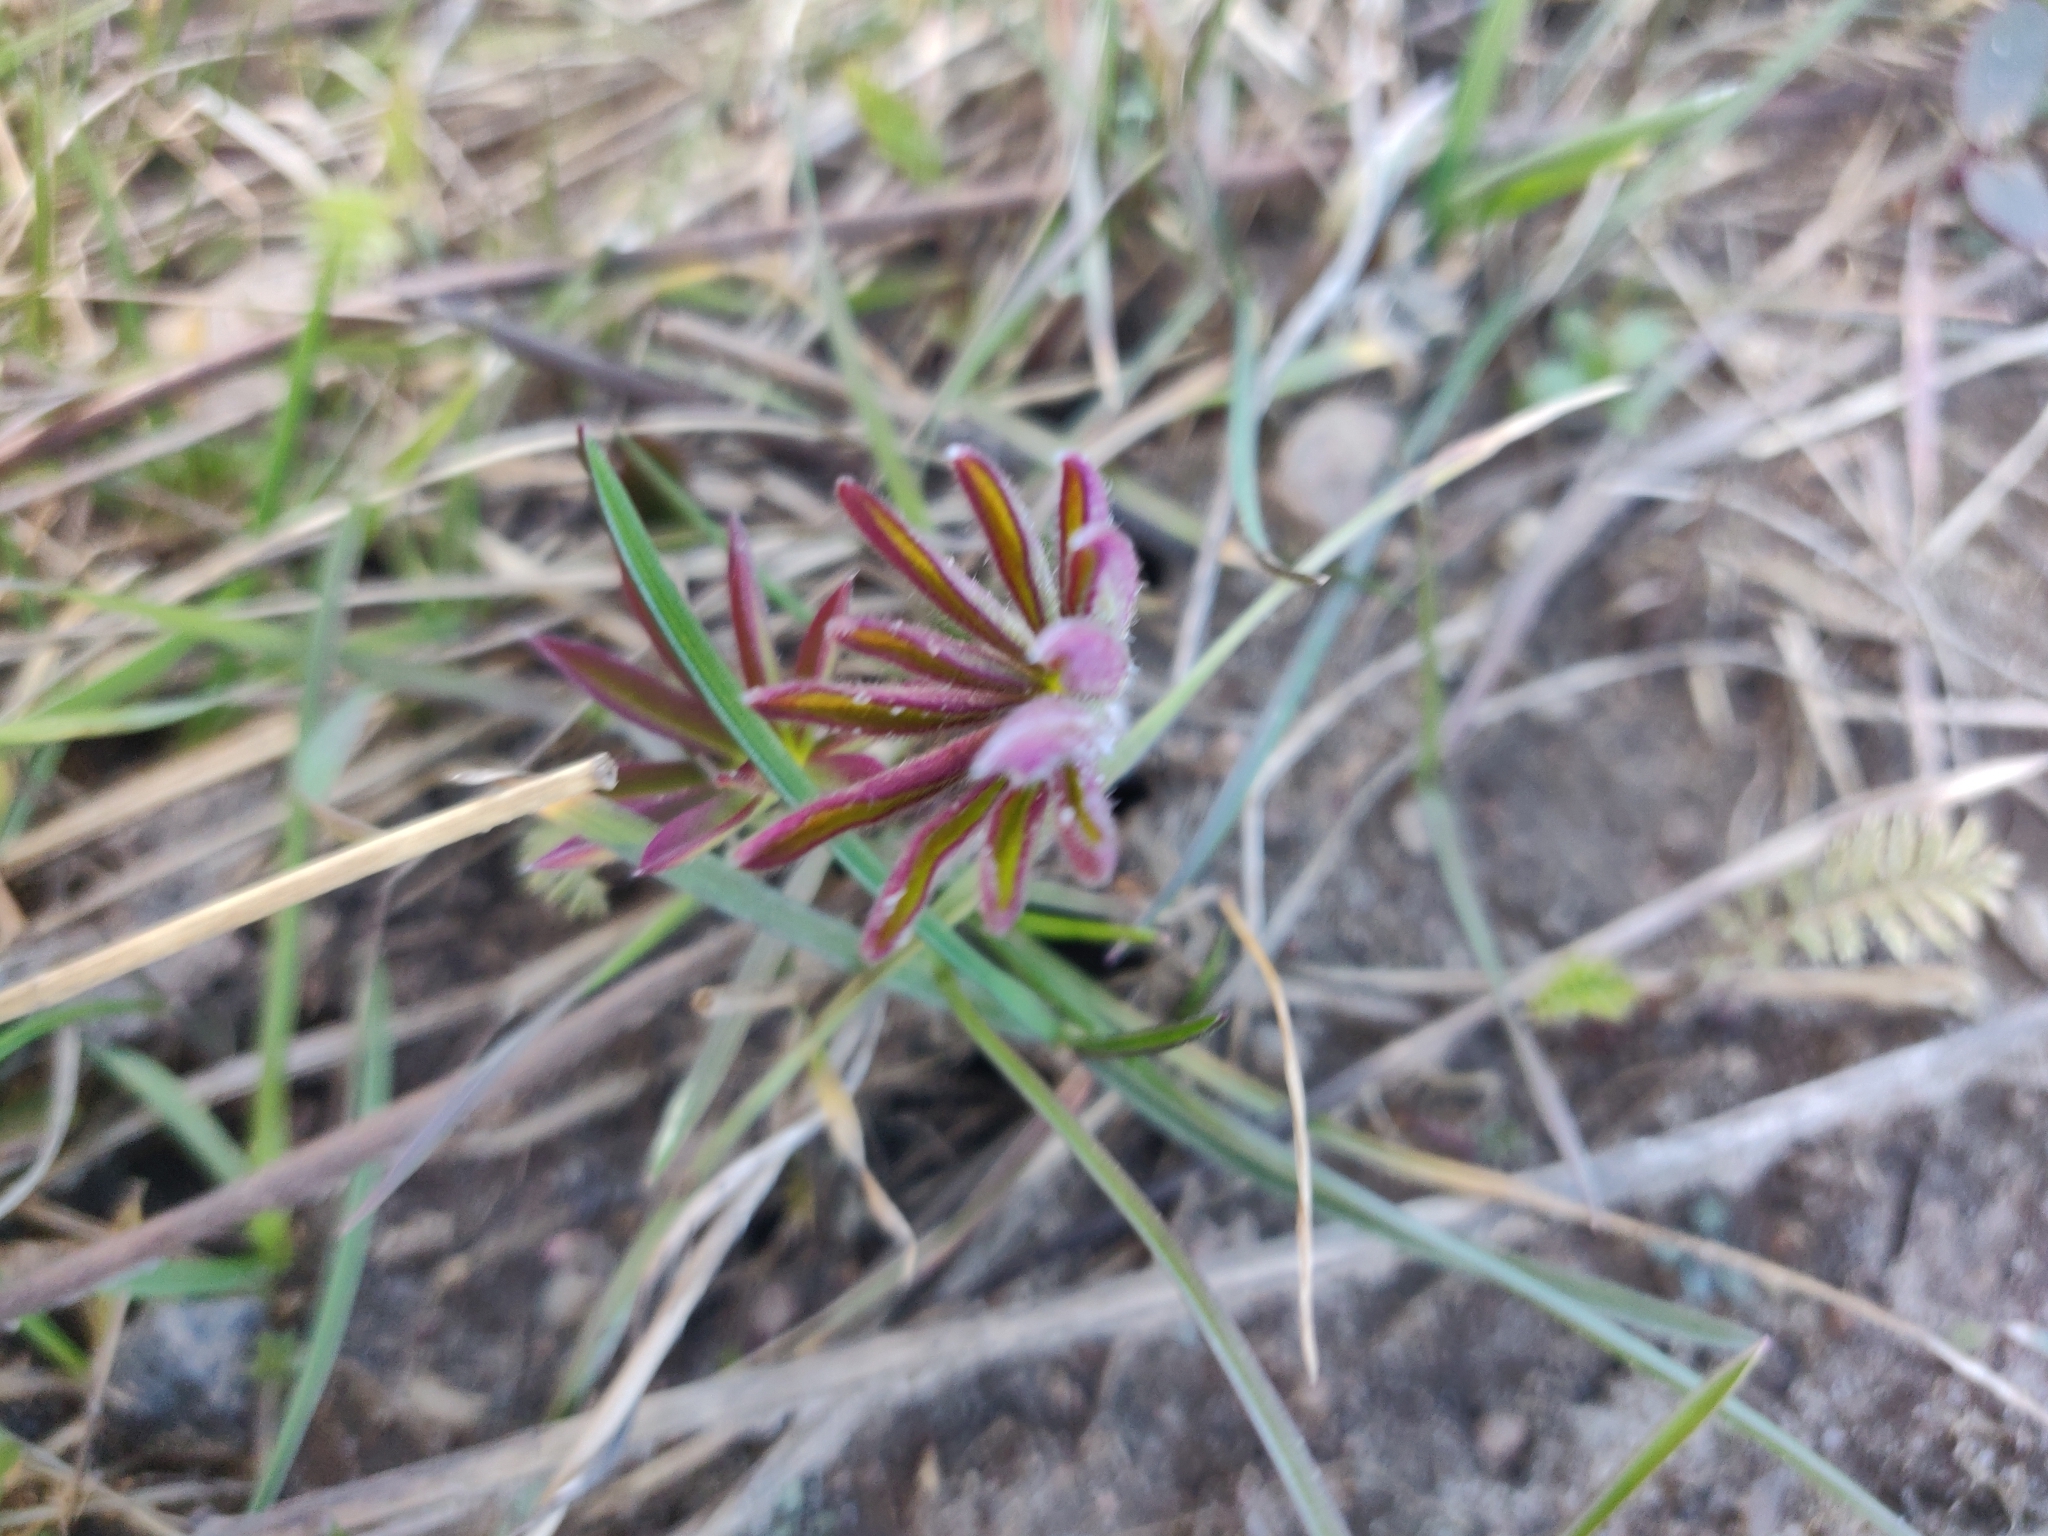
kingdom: Plantae
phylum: Tracheophyta
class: Magnoliopsida
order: Fabales
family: Fabaceae
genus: Lupinus
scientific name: Lupinus polyphyllus
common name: Garden lupin
